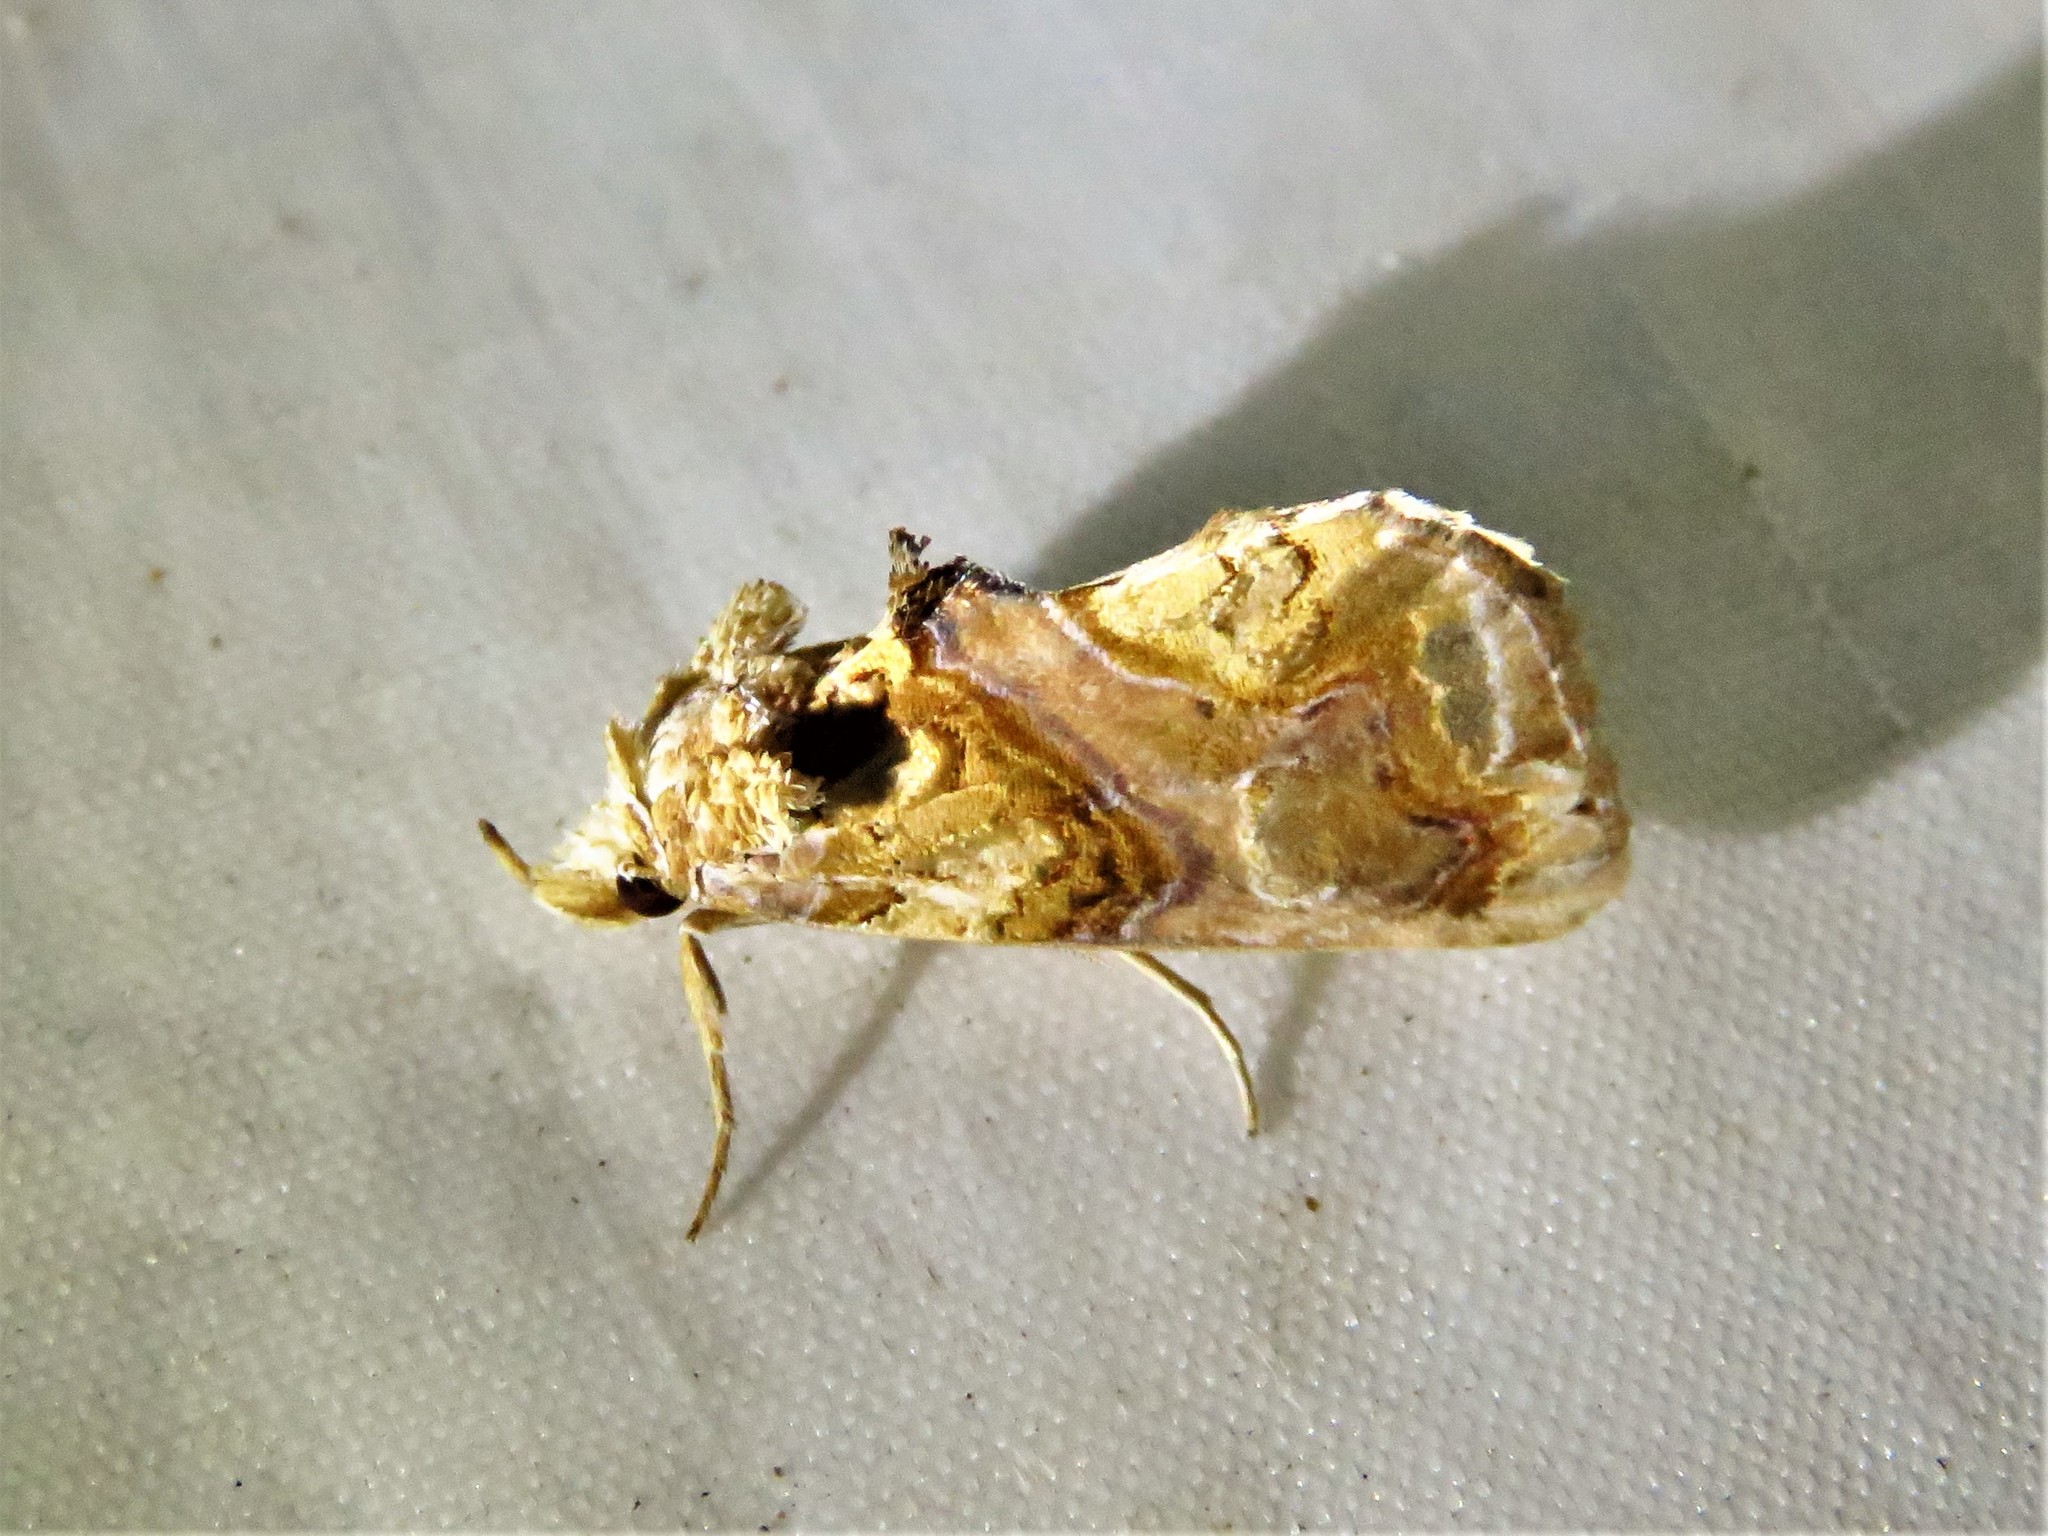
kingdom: Animalia
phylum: Arthropoda
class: Insecta
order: Lepidoptera
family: Erebidae
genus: Plusiodonta
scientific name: Plusiodonta compressipalpis
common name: Moonseed moth
